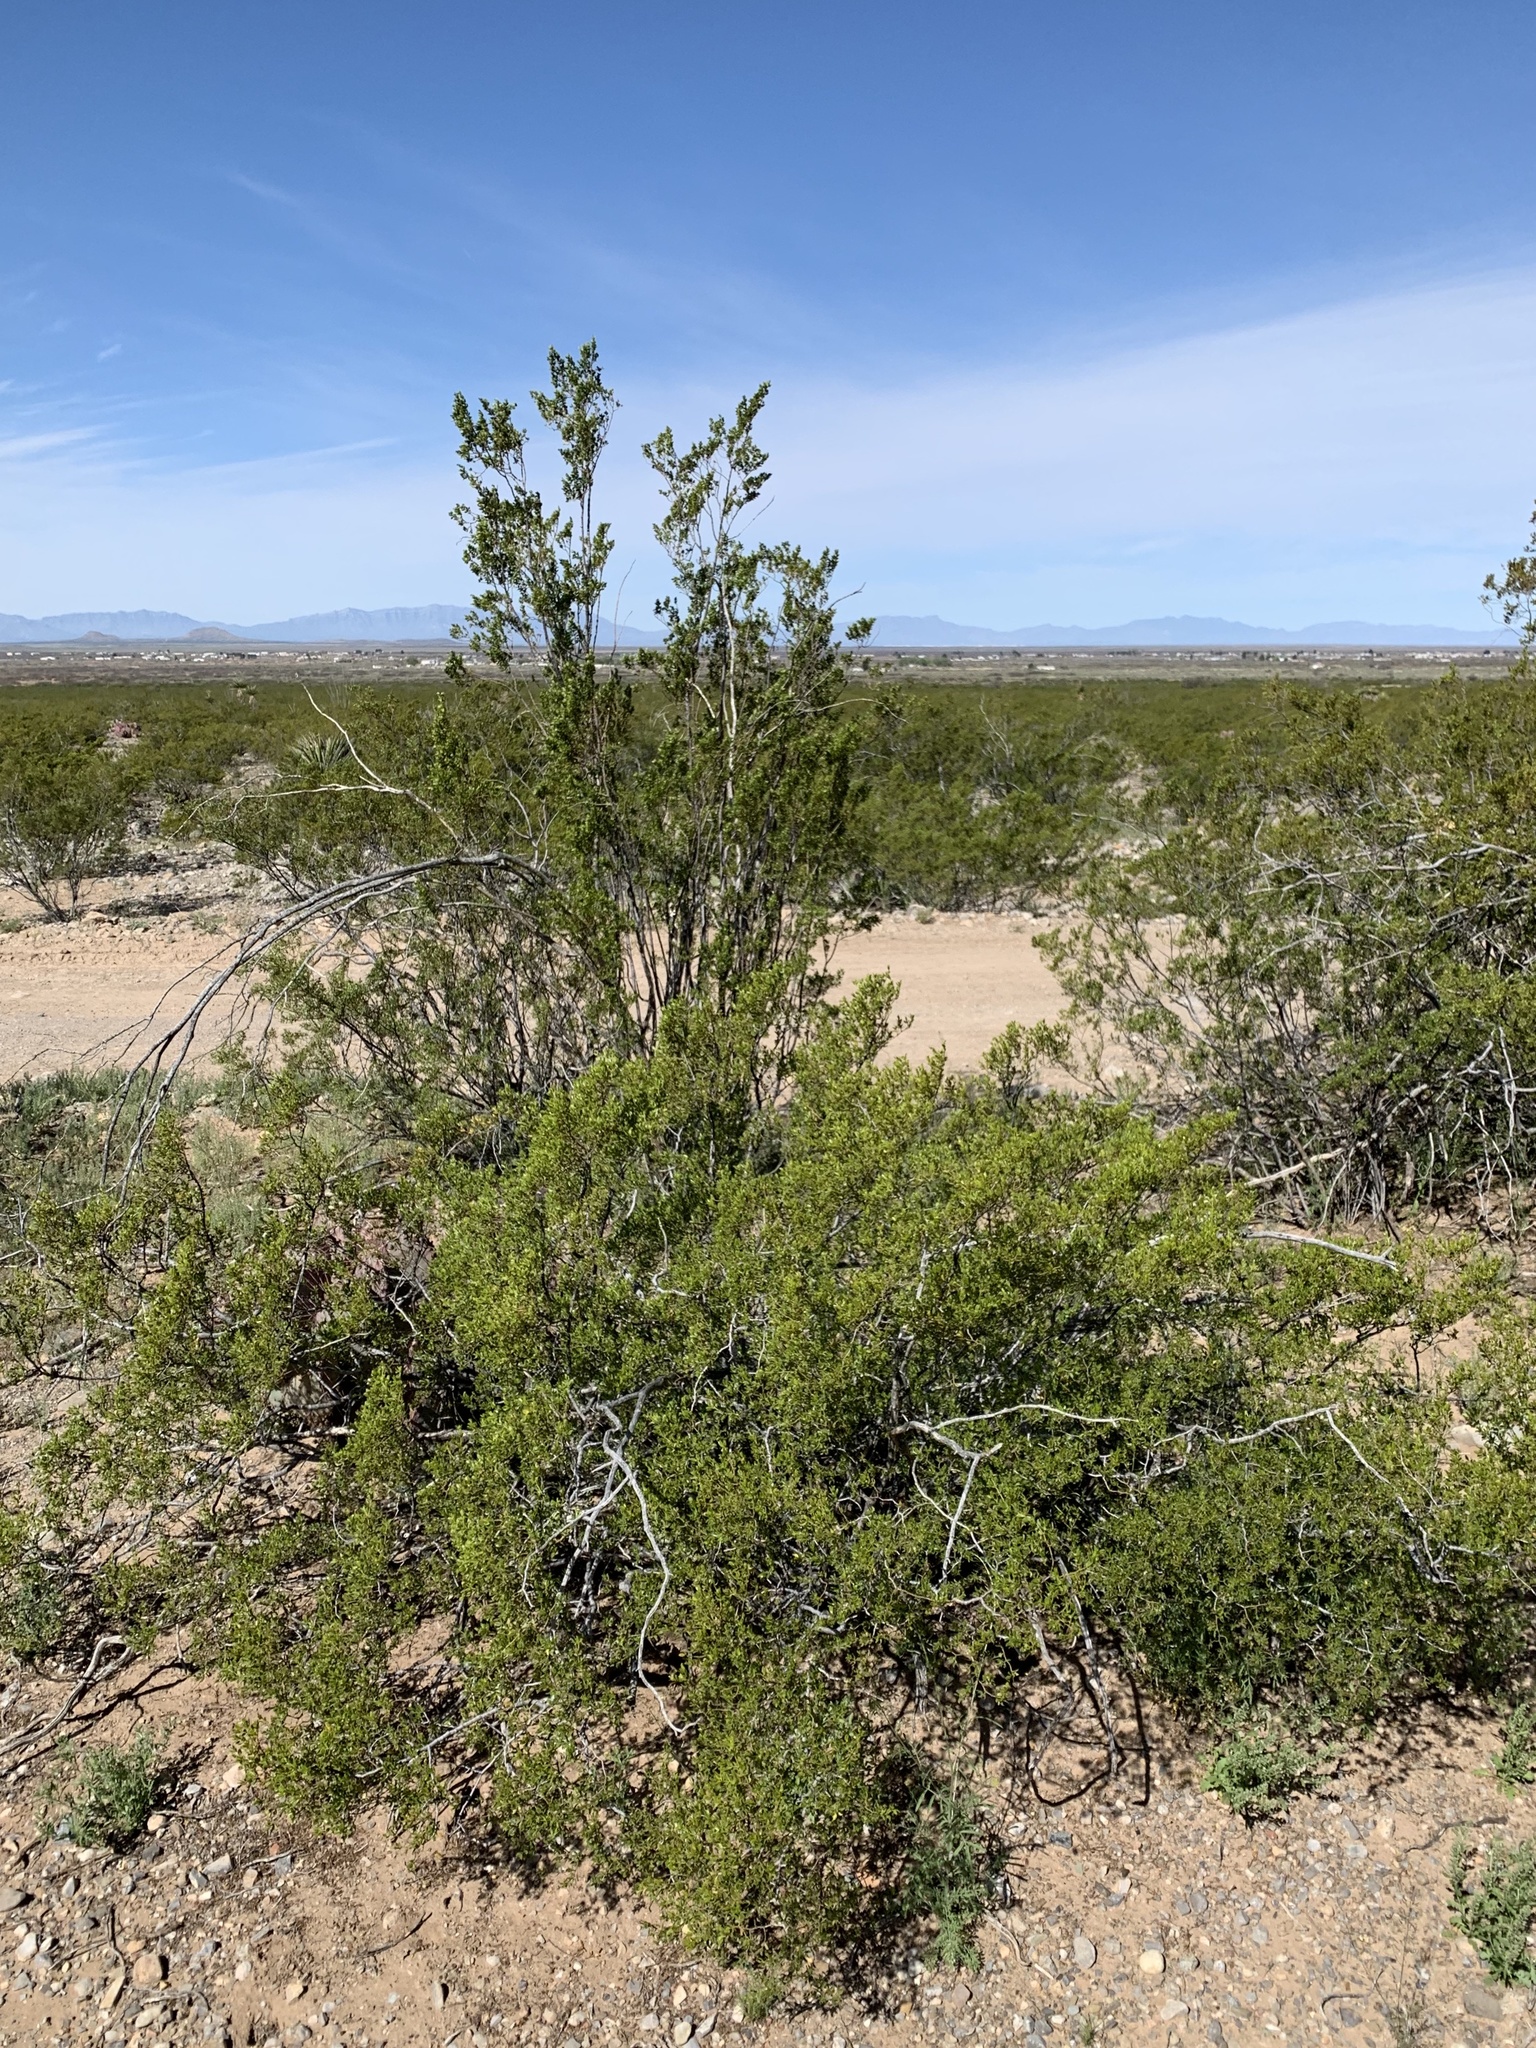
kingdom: Plantae
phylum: Tracheophyta
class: Magnoliopsida
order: Zygophyllales
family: Zygophyllaceae
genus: Larrea
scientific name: Larrea tridentata
